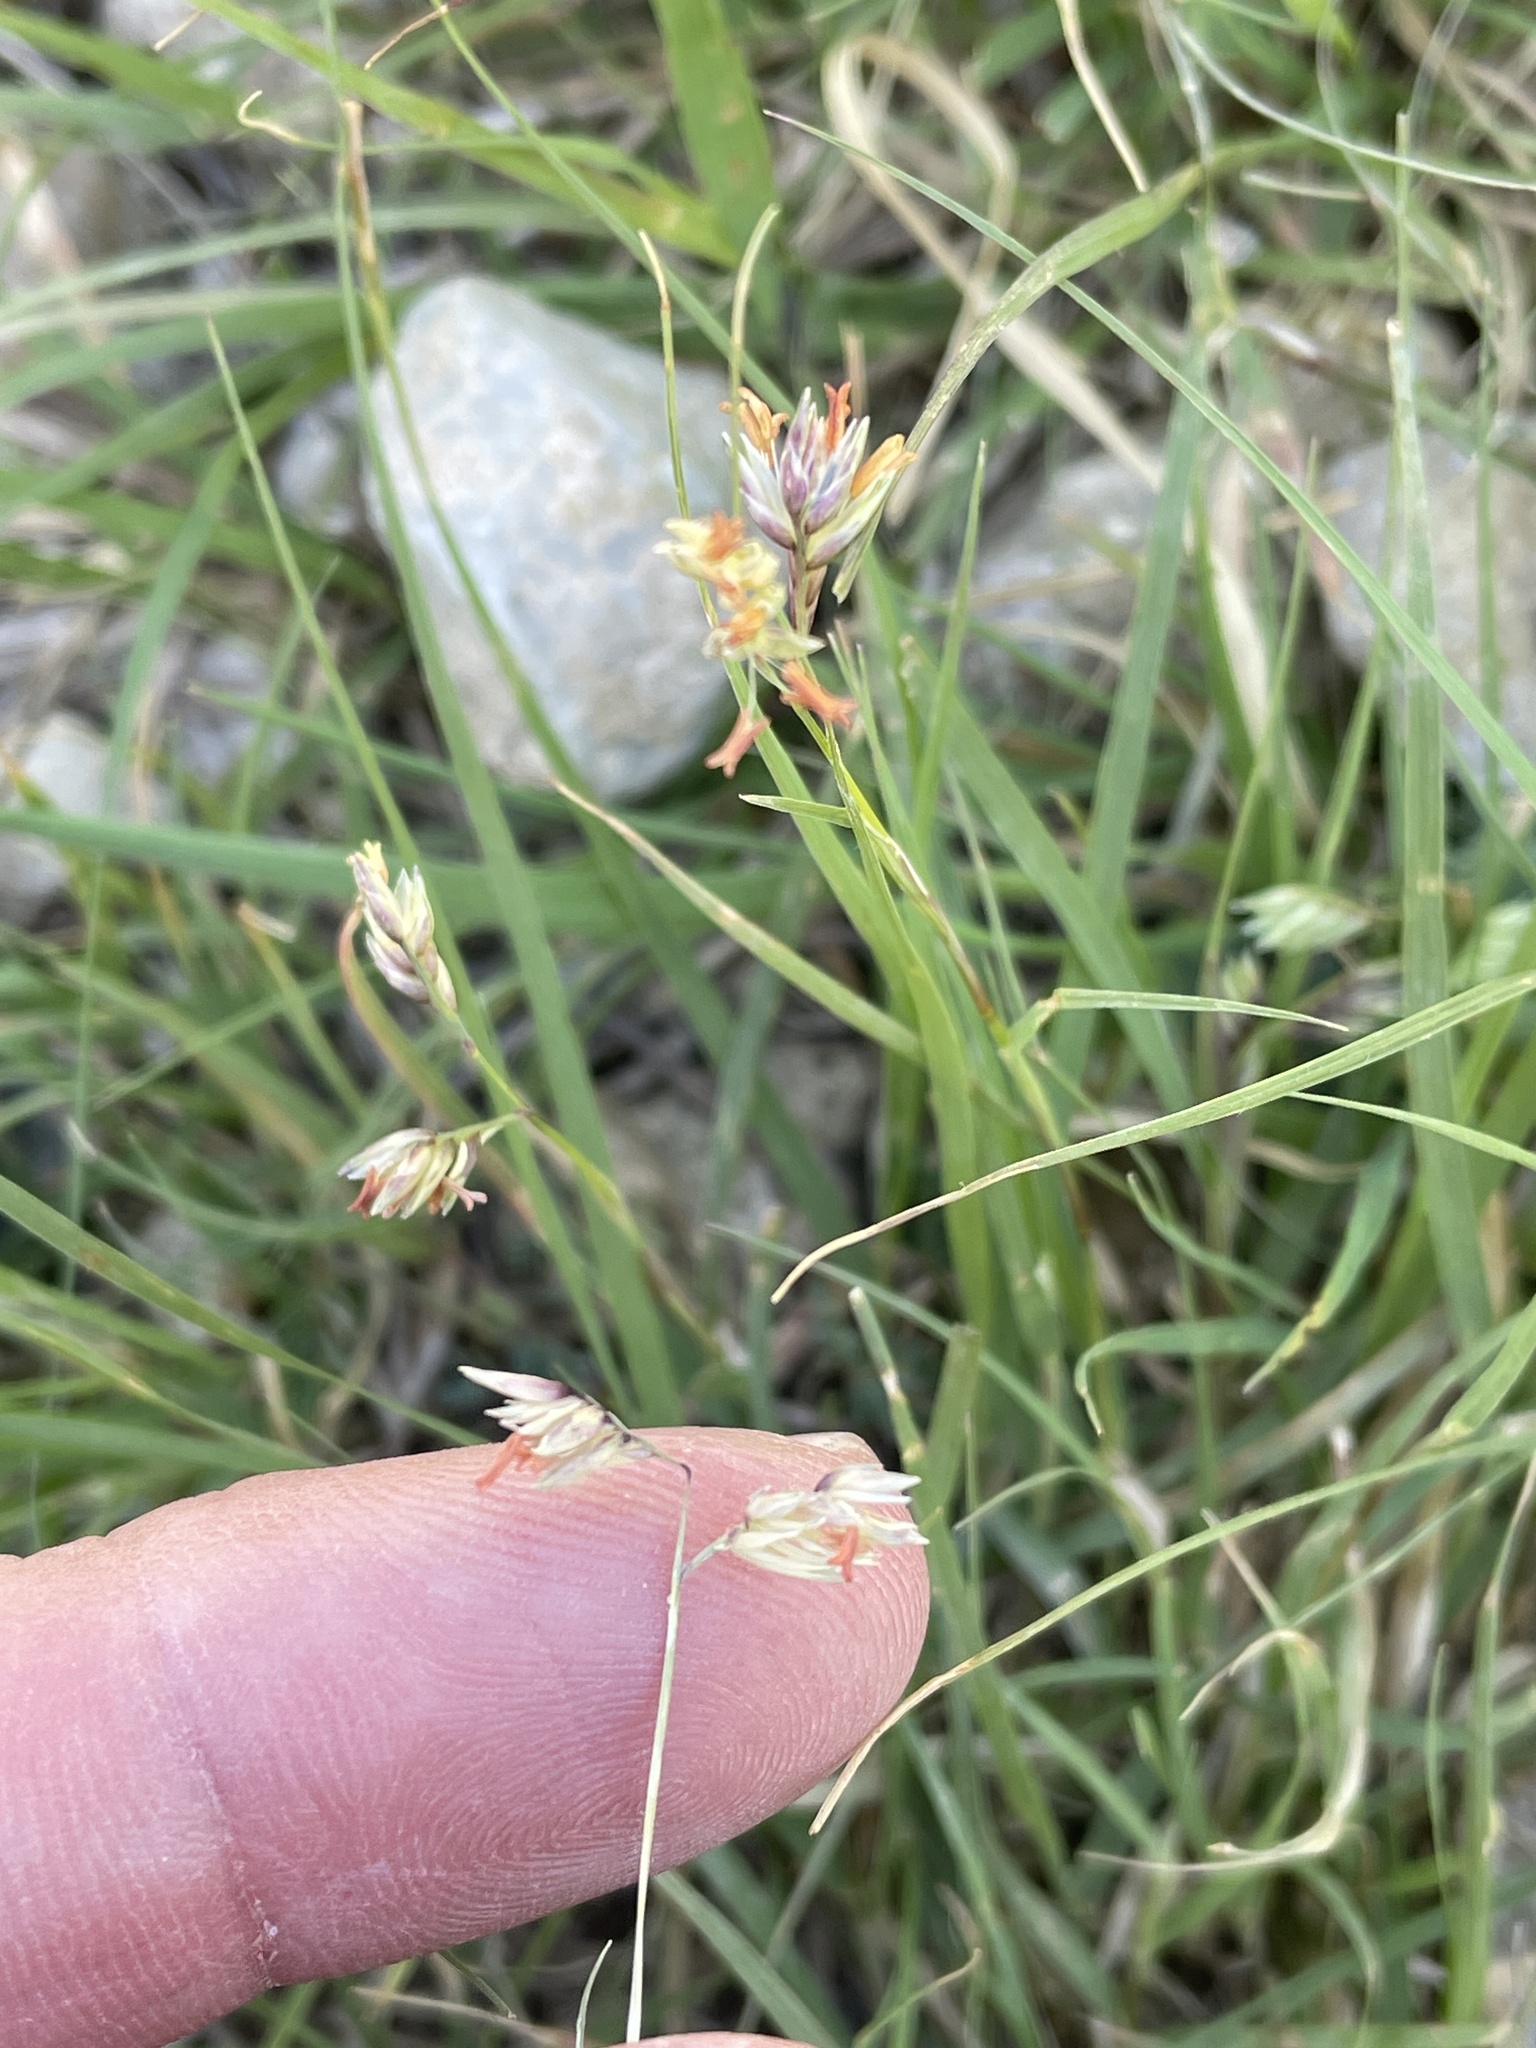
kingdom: Plantae
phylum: Tracheophyta
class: Liliopsida
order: Poales
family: Poaceae
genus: Bouteloua
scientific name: Bouteloua dactyloides
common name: Buffalo grass
